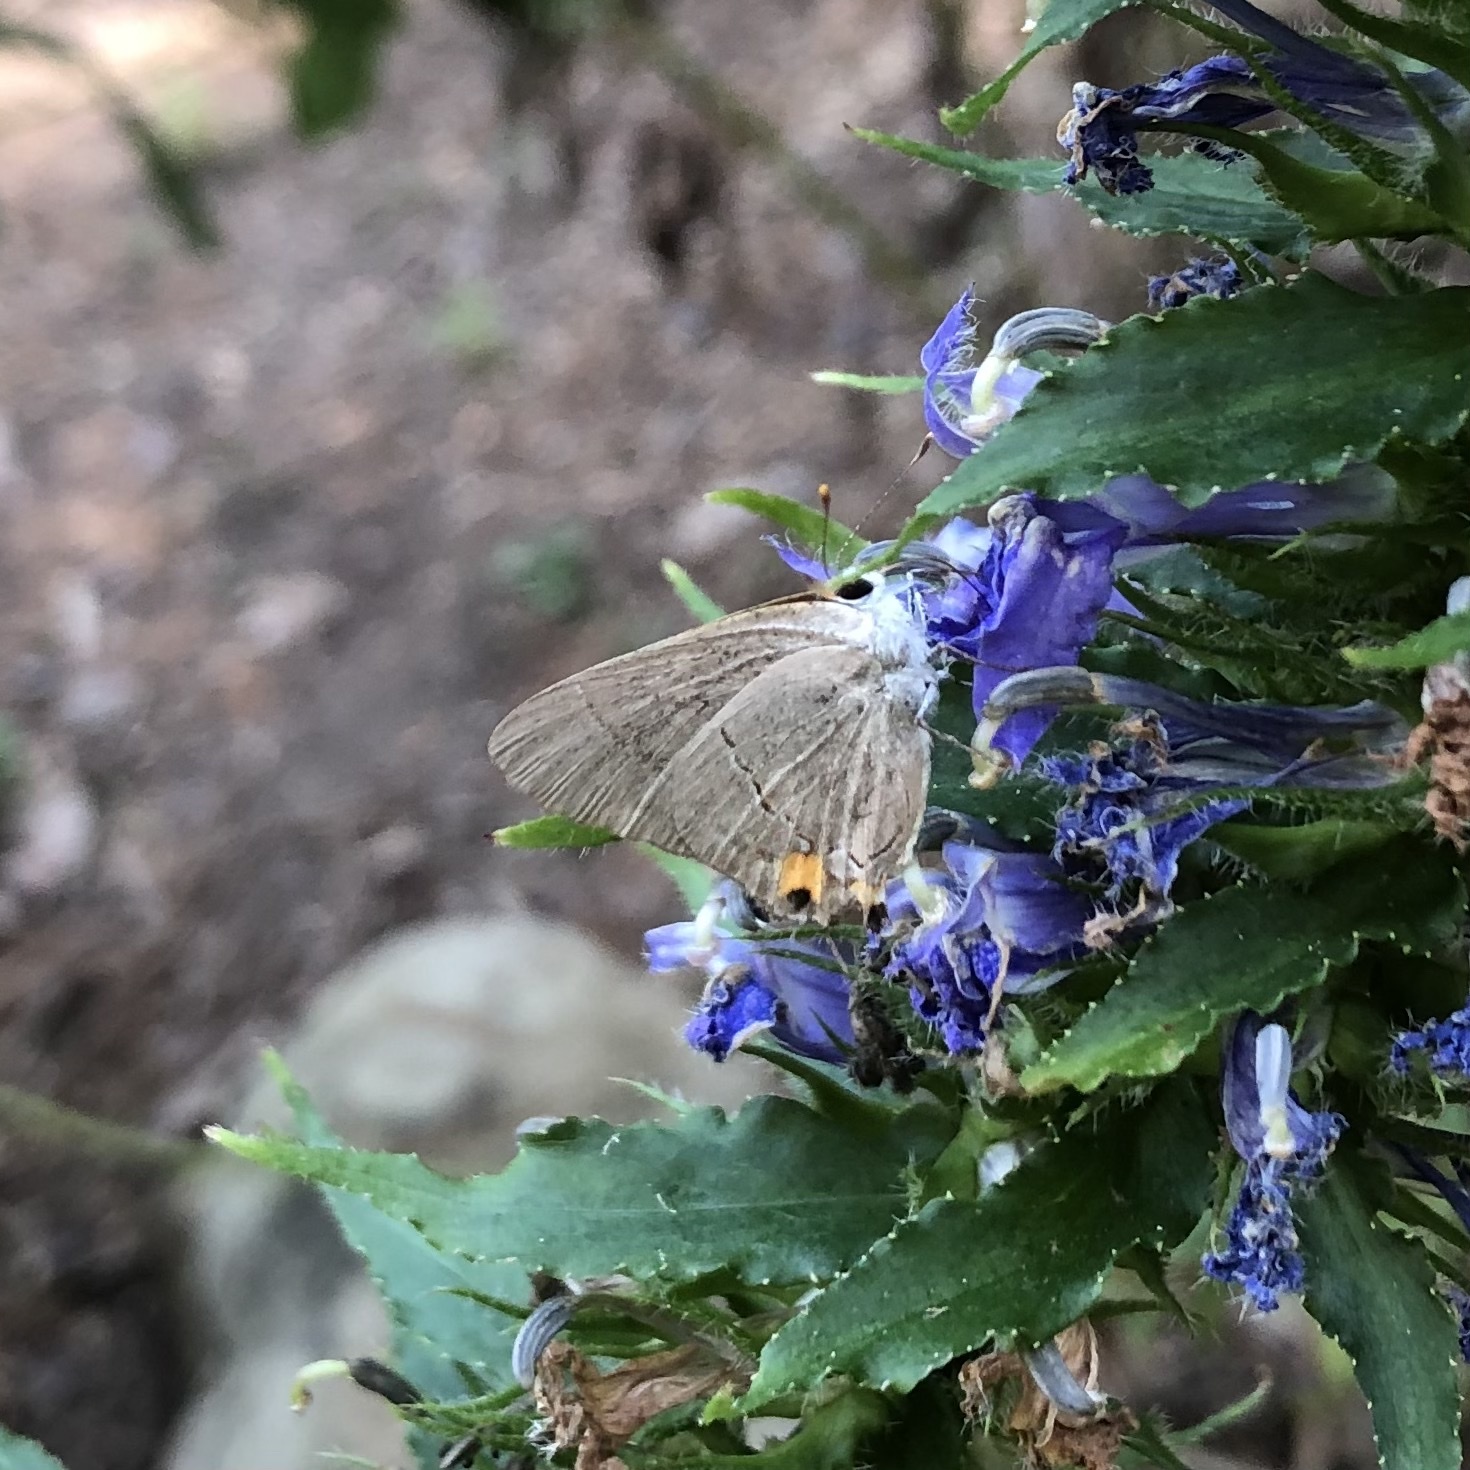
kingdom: Animalia
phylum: Arthropoda
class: Insecta
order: Lepidoptera
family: Lycaenidae
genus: Strymon
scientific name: Strymon melinus
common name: Gray hairstreak
